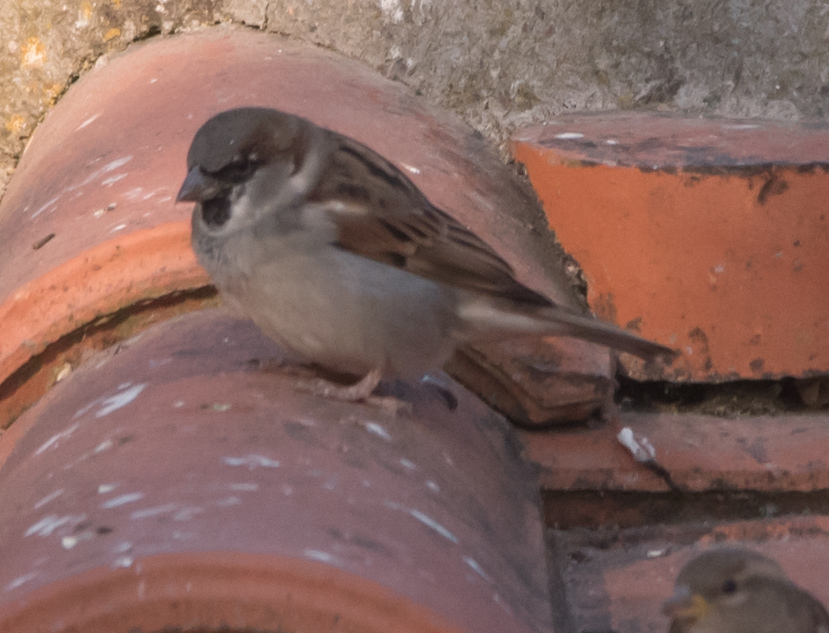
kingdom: Animalia
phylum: Chordata
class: Aves
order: Passeriformes
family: Passeridae
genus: Passer
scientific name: Passer domesticus
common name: House sparrow
